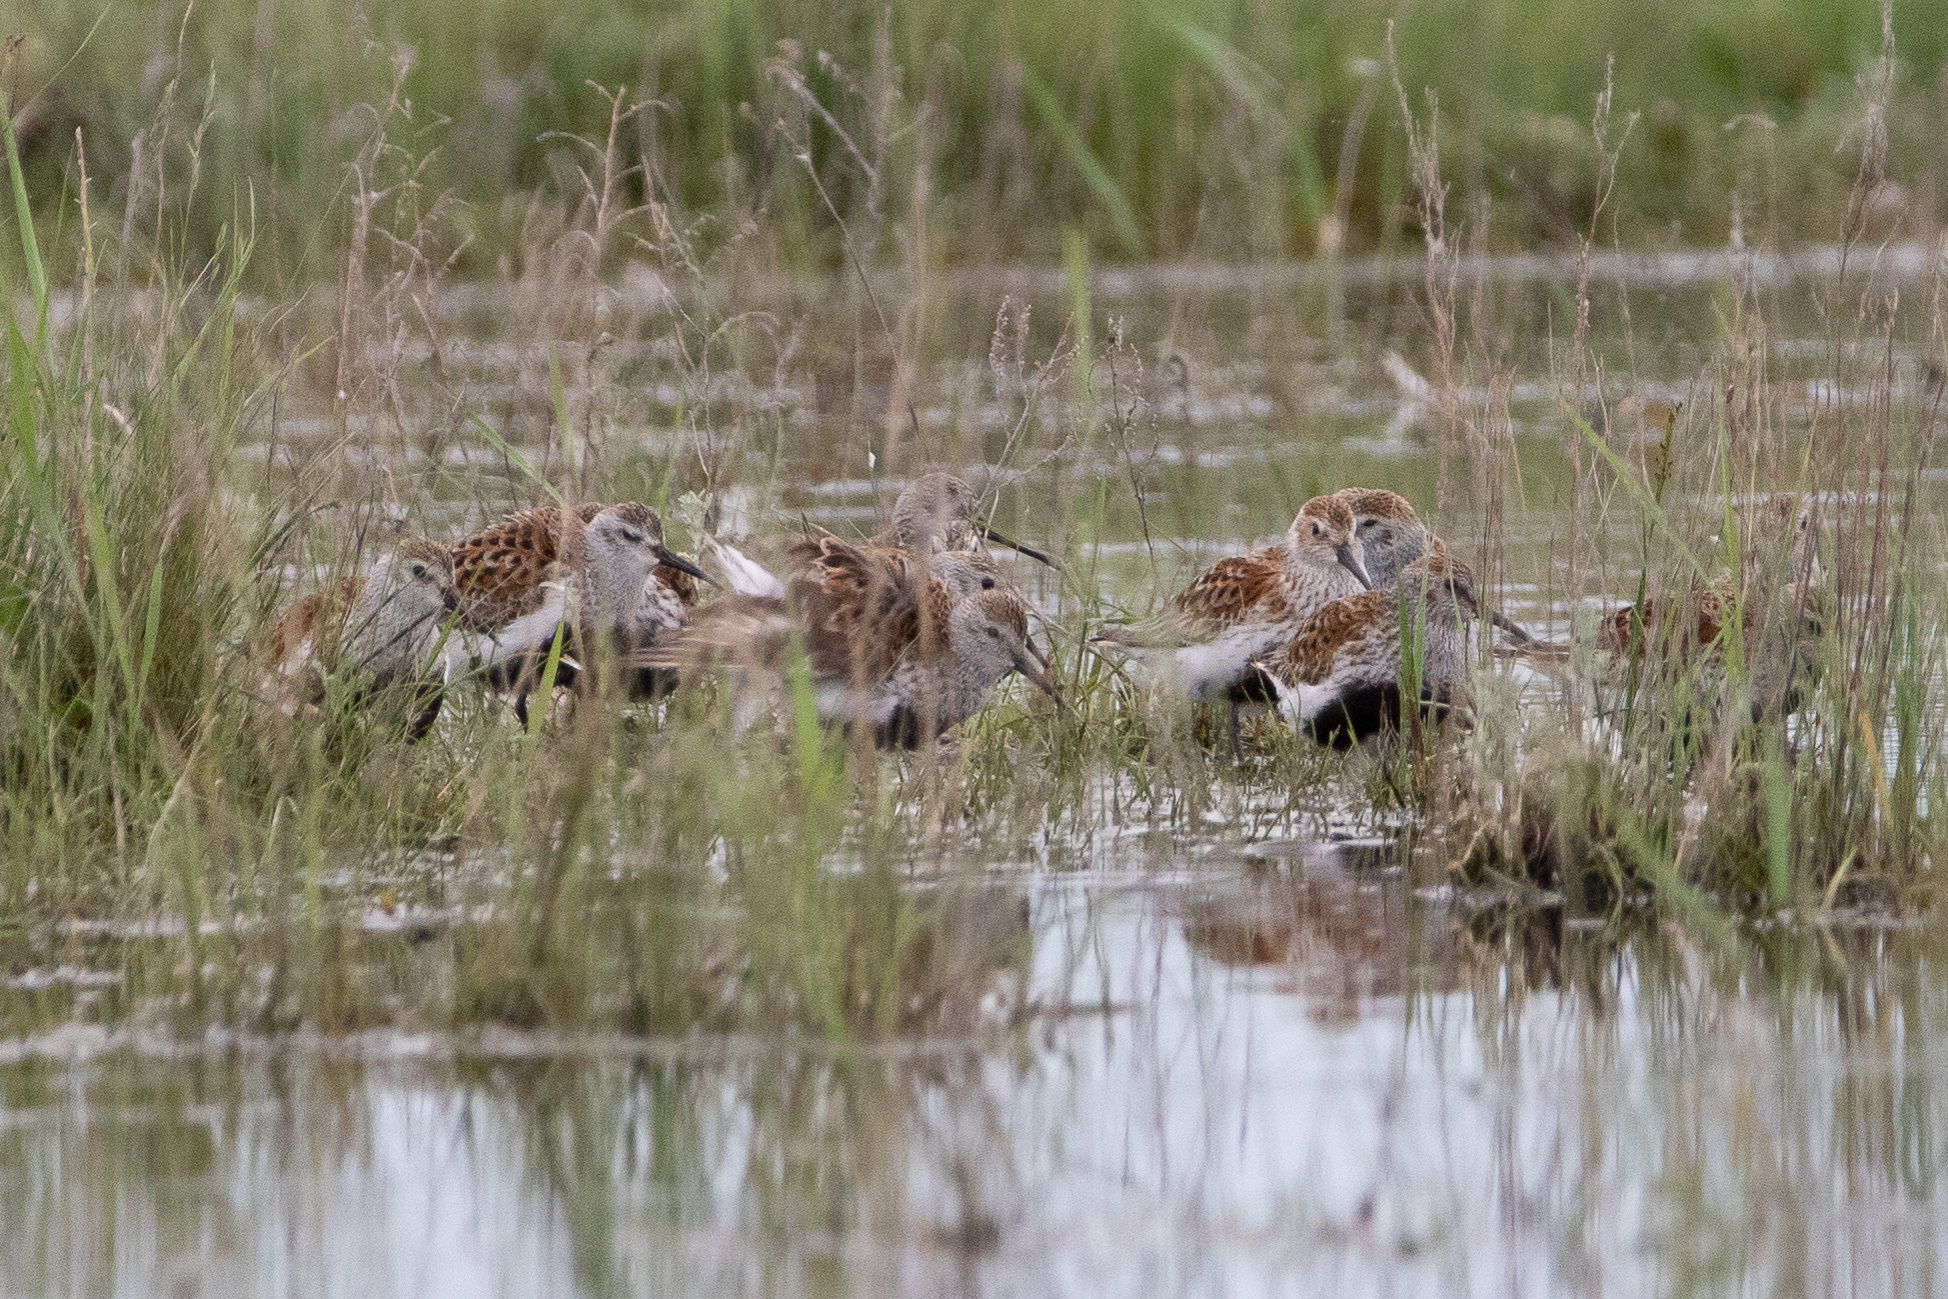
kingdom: Animalia
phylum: Chordata
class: Aves
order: Charadriiformes
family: Scolopacidae
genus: Calidris
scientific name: Calidris alpina
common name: Dunlin
